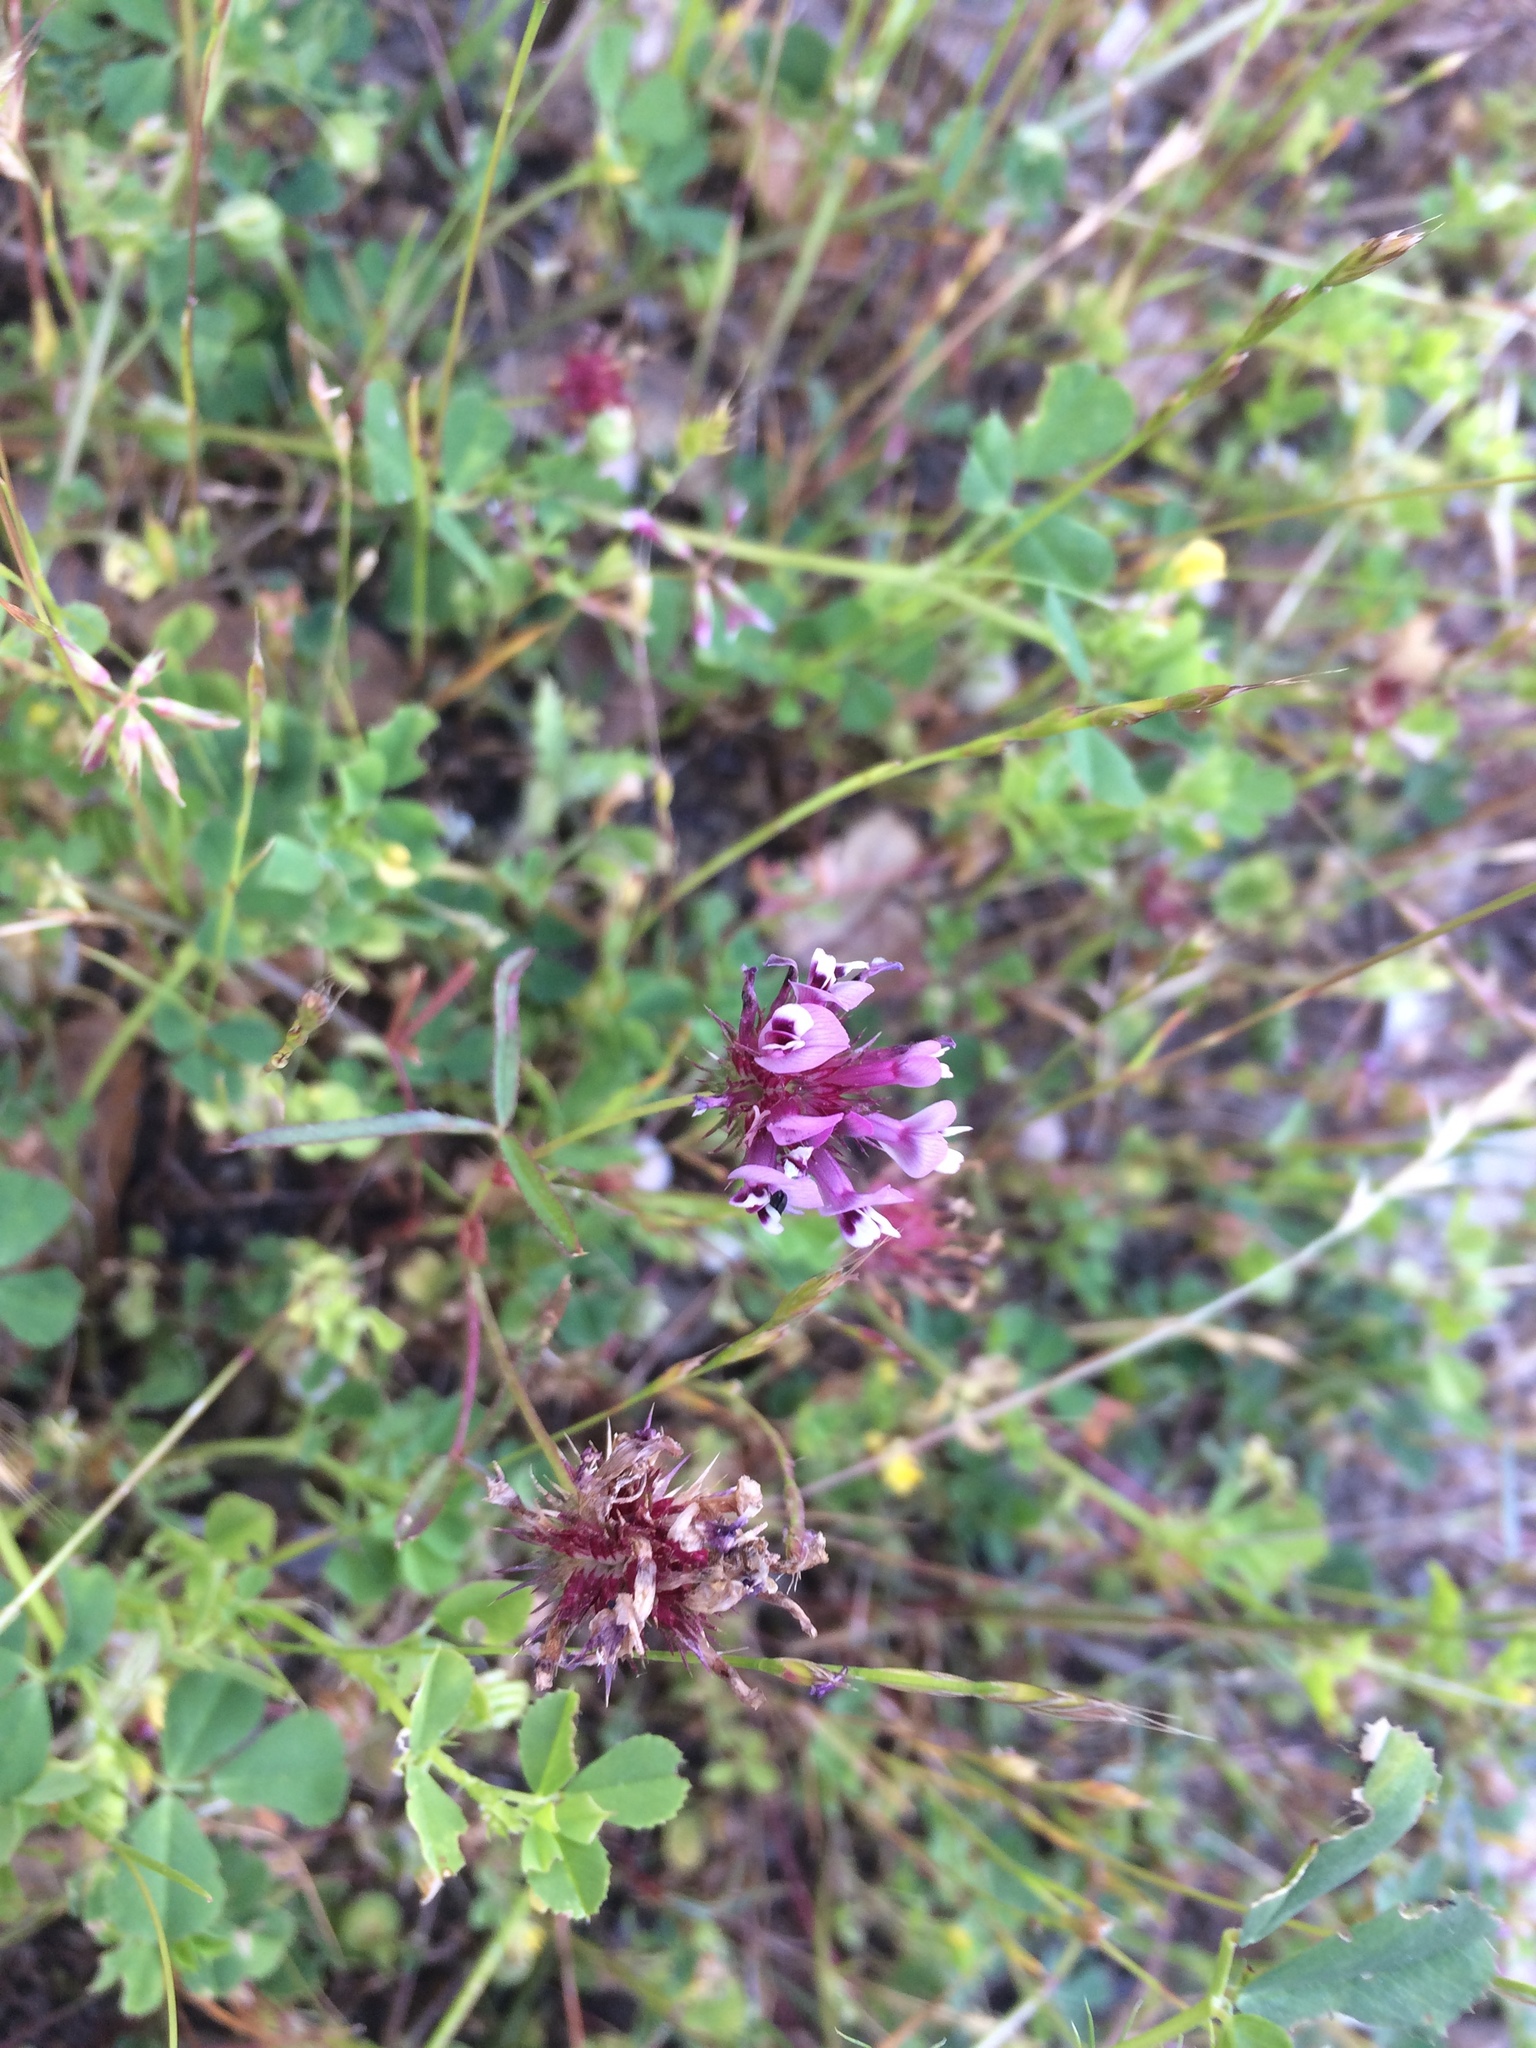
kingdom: Plantae
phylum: Tracheophyta
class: Magnoliopsida
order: Fabales
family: Fabaceae
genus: Trifolium
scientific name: Trifolium willdenovii
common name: Tomcat clover
